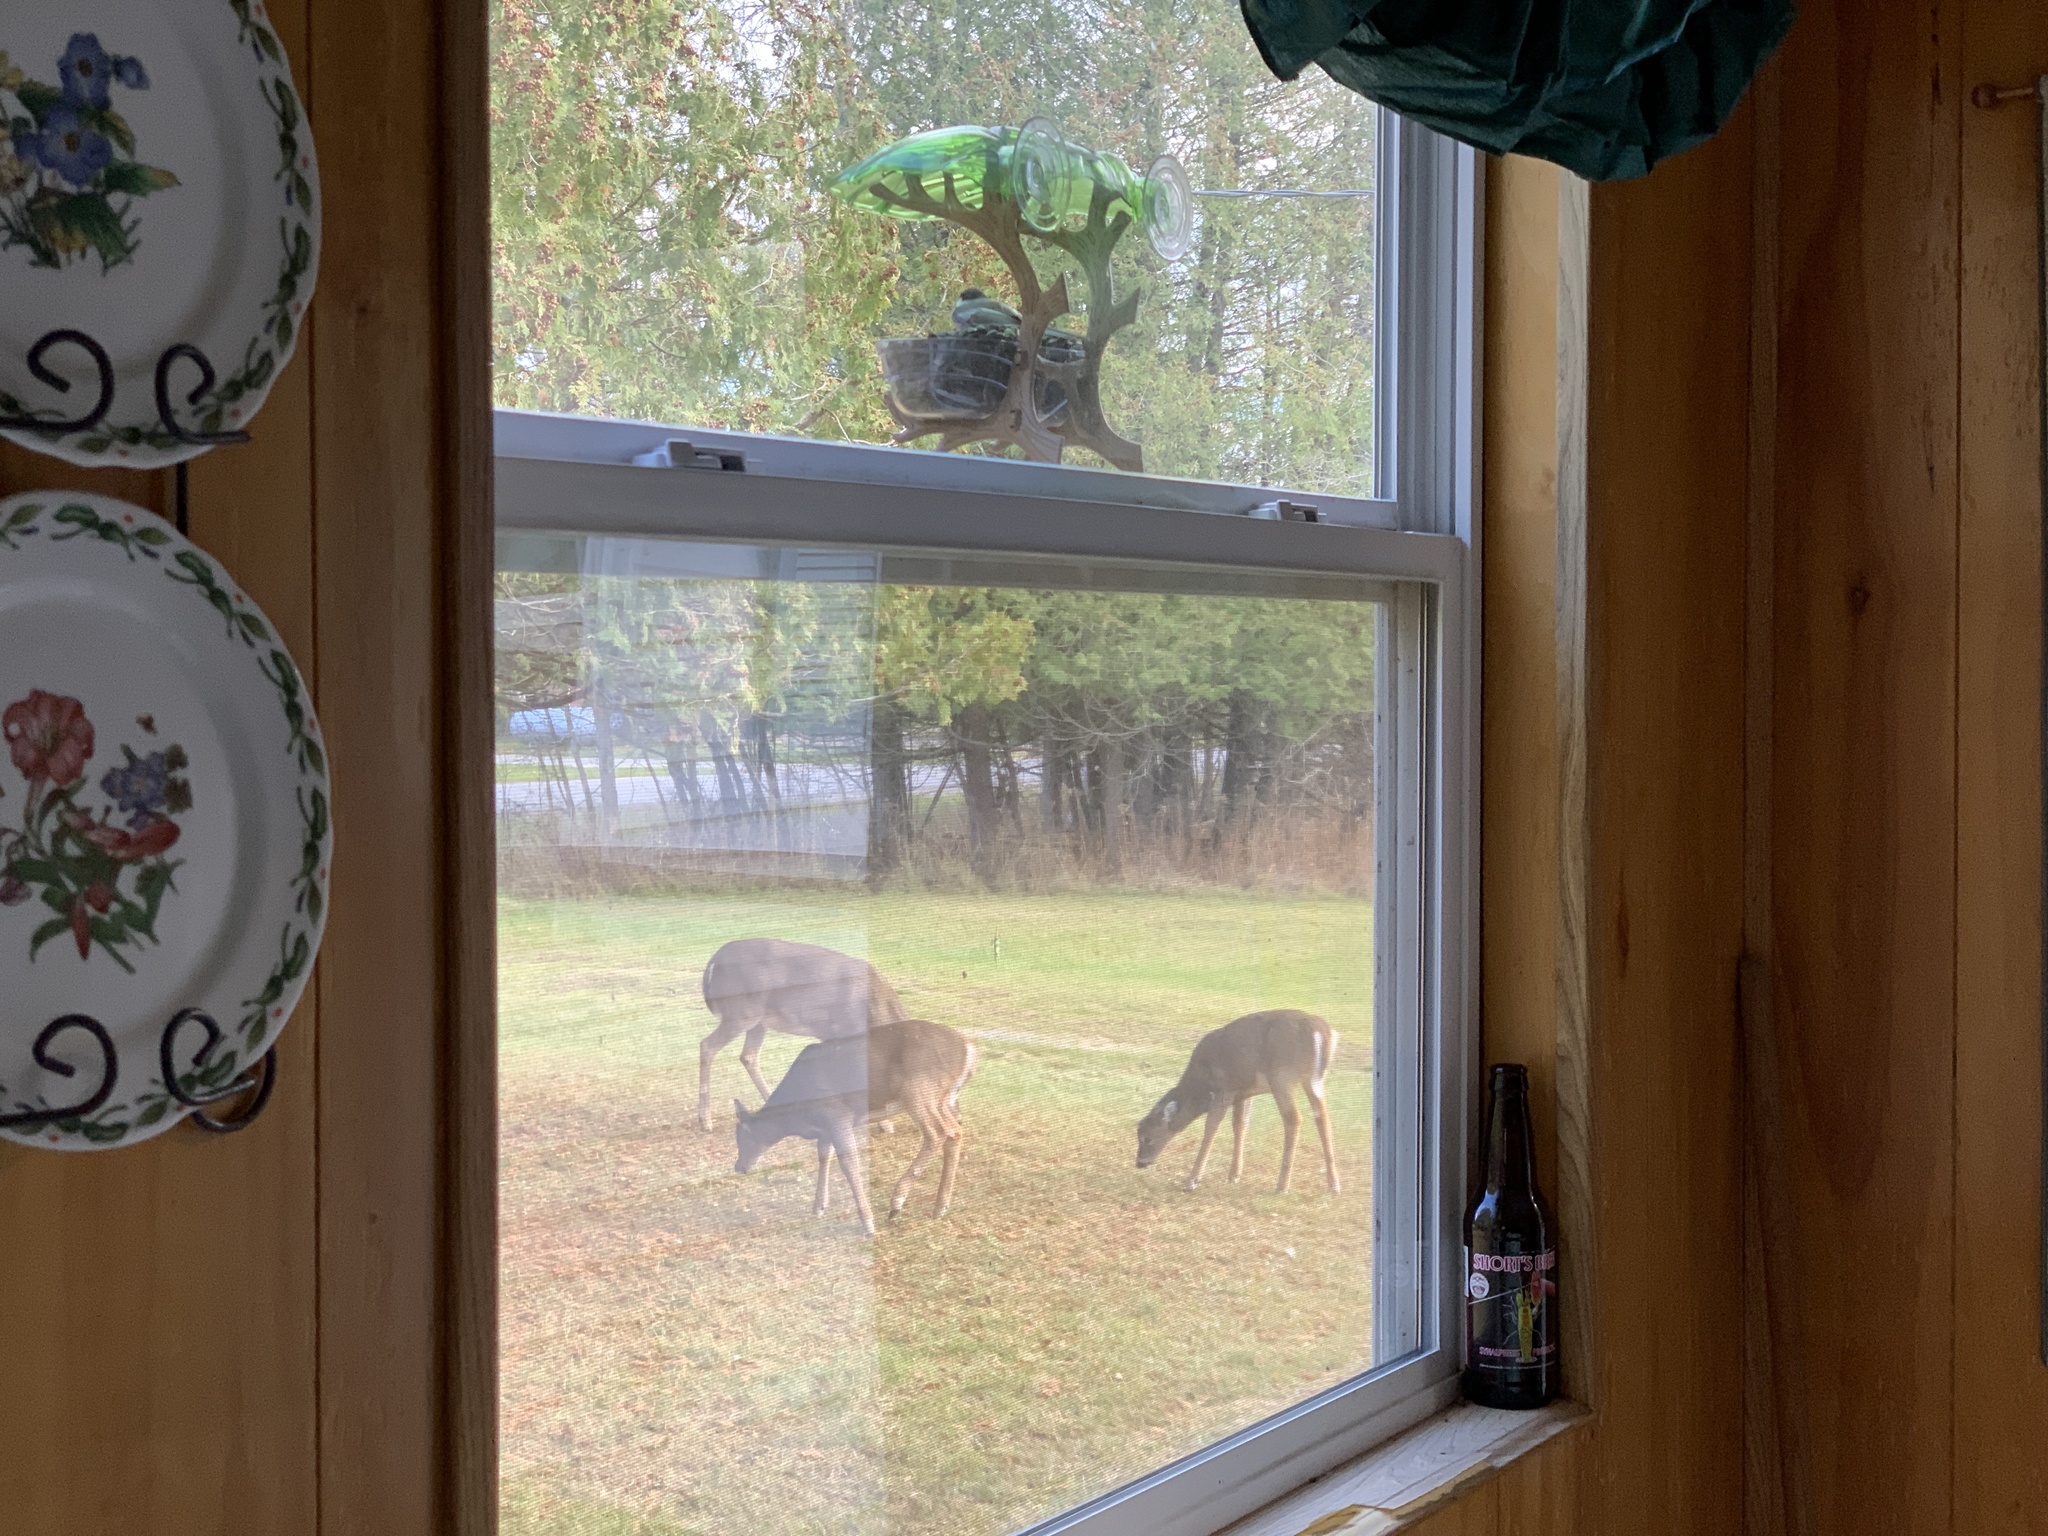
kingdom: Animalia
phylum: Chordata
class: Mammalia
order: Artiodactyla
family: Cervidae
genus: Odocoileus
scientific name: Odocoileus virginianus
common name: White-tailed deer
